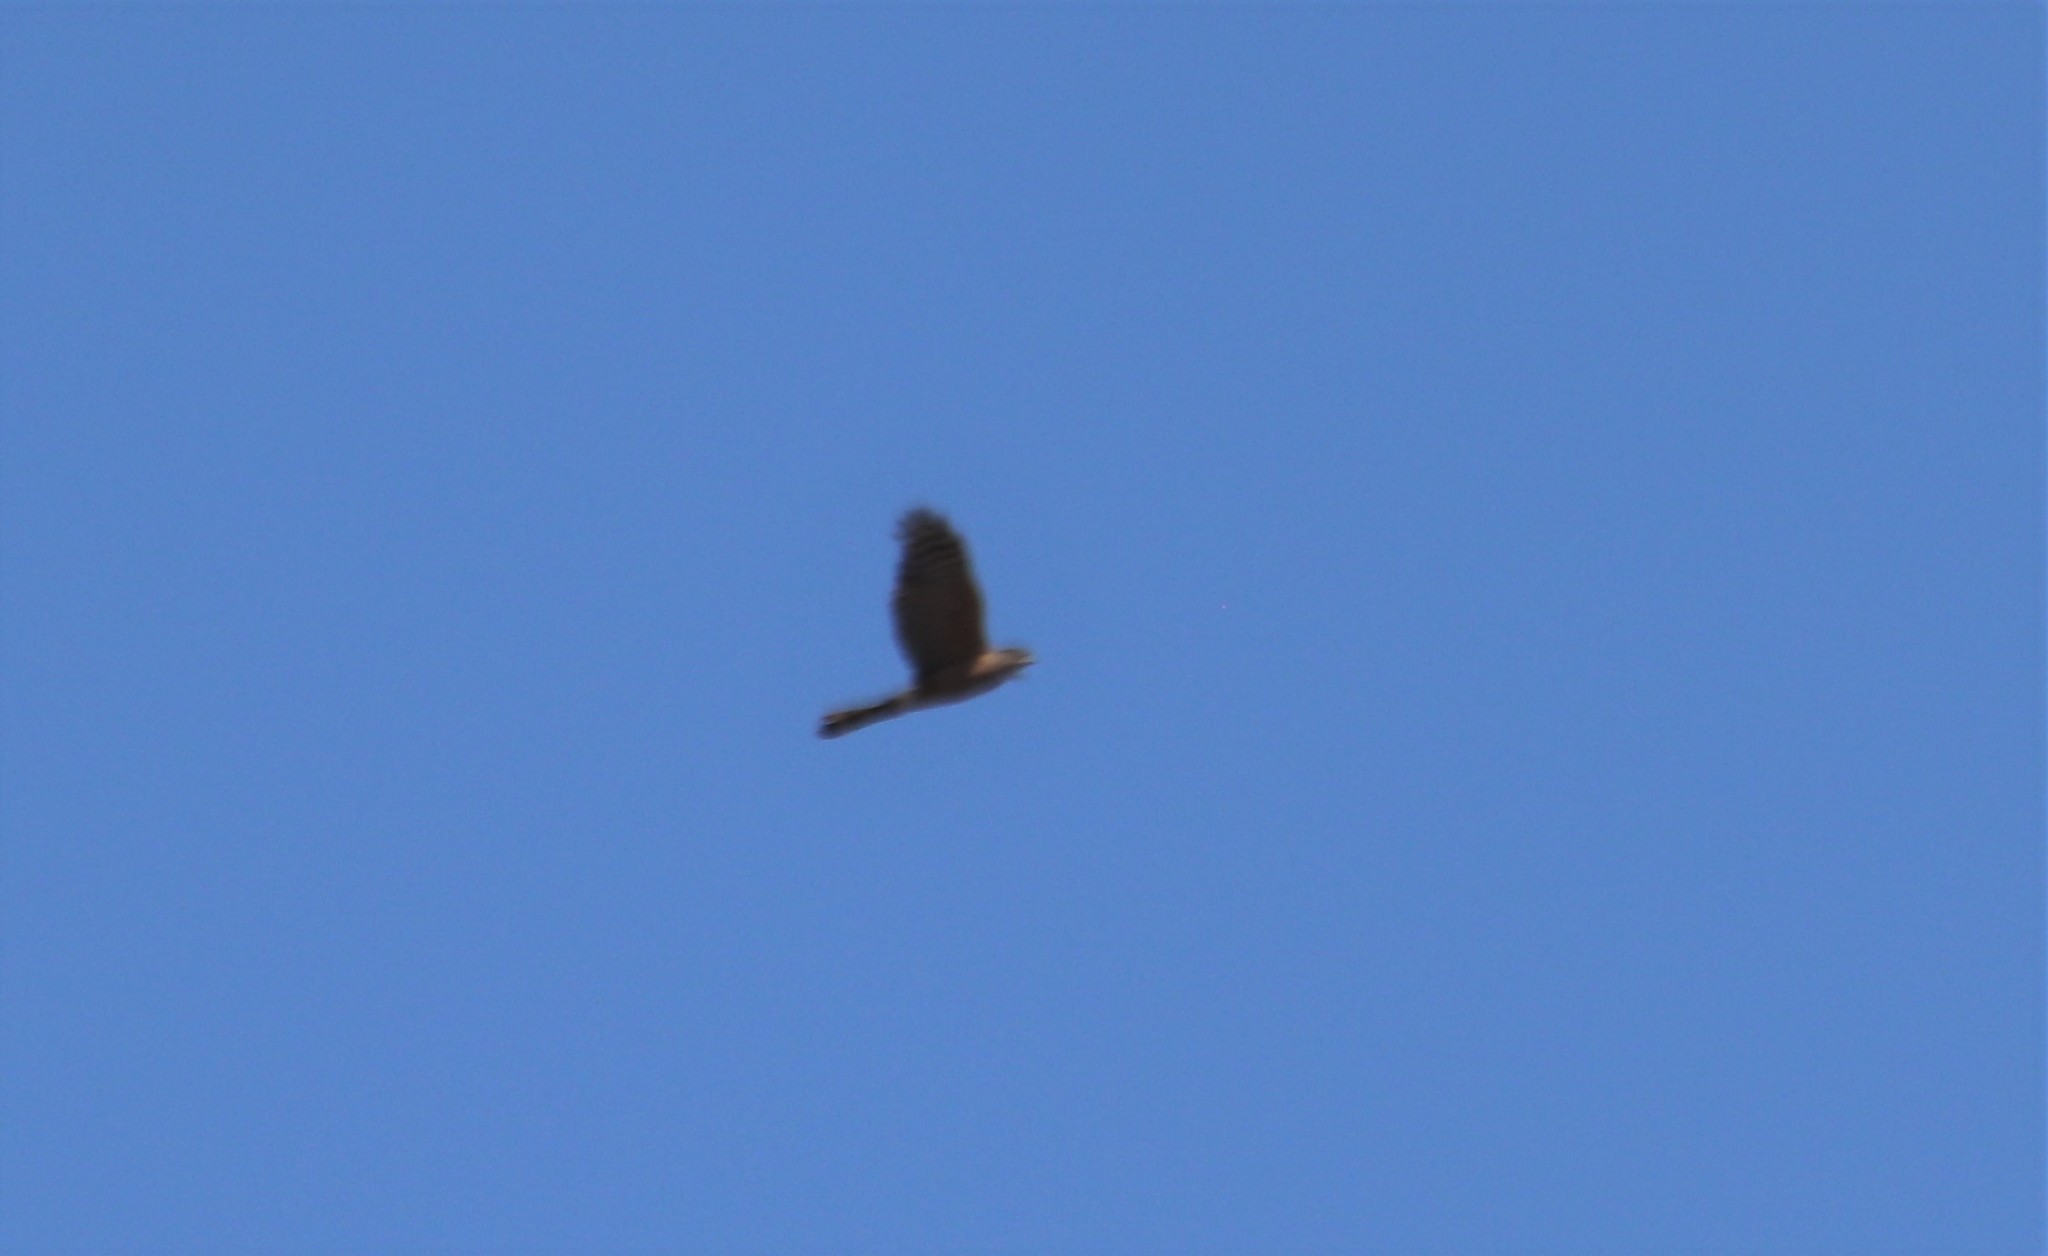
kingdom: Animalia
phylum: Chordata
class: Aves
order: Accipitriformes
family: Accipitridae
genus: Accipiter
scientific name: Accipiter cooperii
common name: Cooper's hawk
